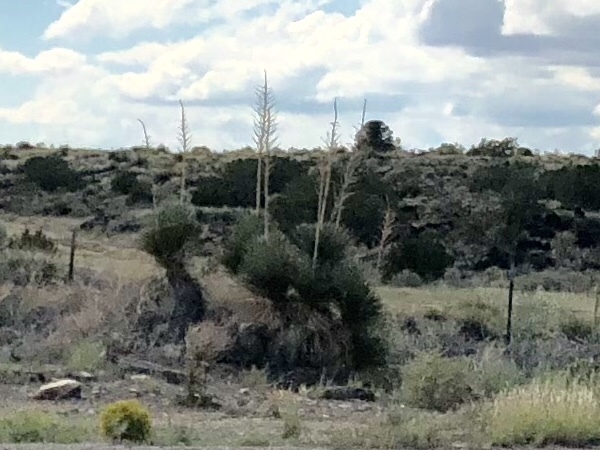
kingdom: Plantae
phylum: Tracheophyta
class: Liliopsida
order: Asparagales
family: Asparagaceae
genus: Yucca
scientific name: Yucca elata
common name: Palmella
